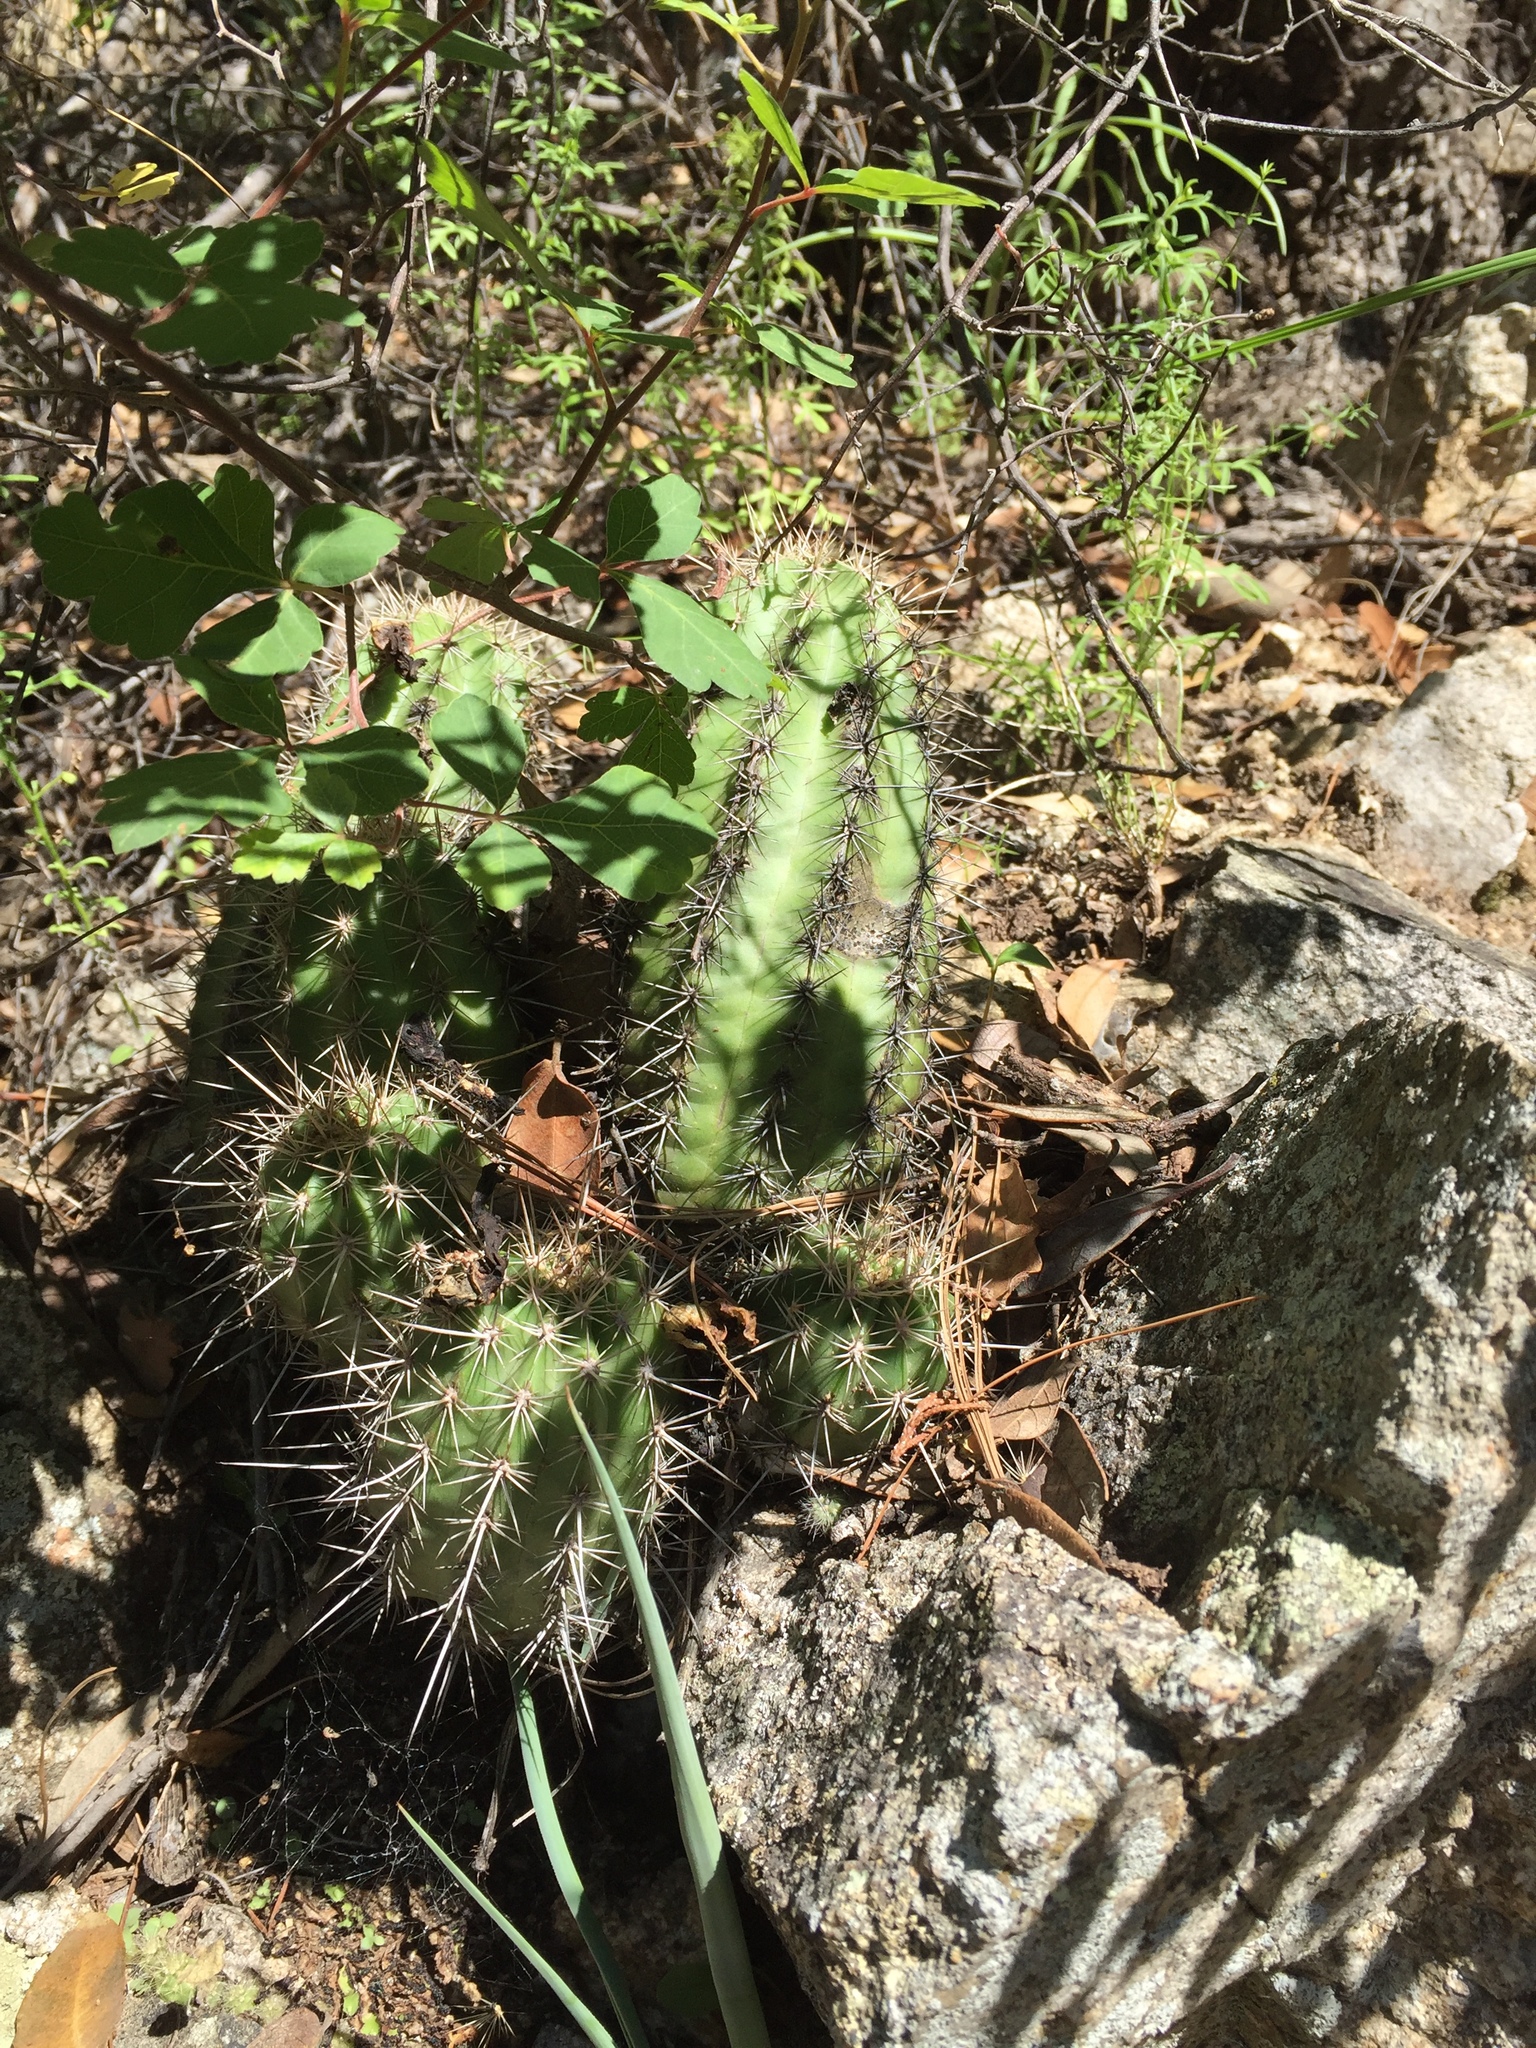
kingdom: Plantae
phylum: Tracheophyta
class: Magnoliopsida
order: Caryophyllales
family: Cactaceae
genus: Echinocereus
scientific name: Echinocereus arizonicus
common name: Arizona hedgehog cactus
